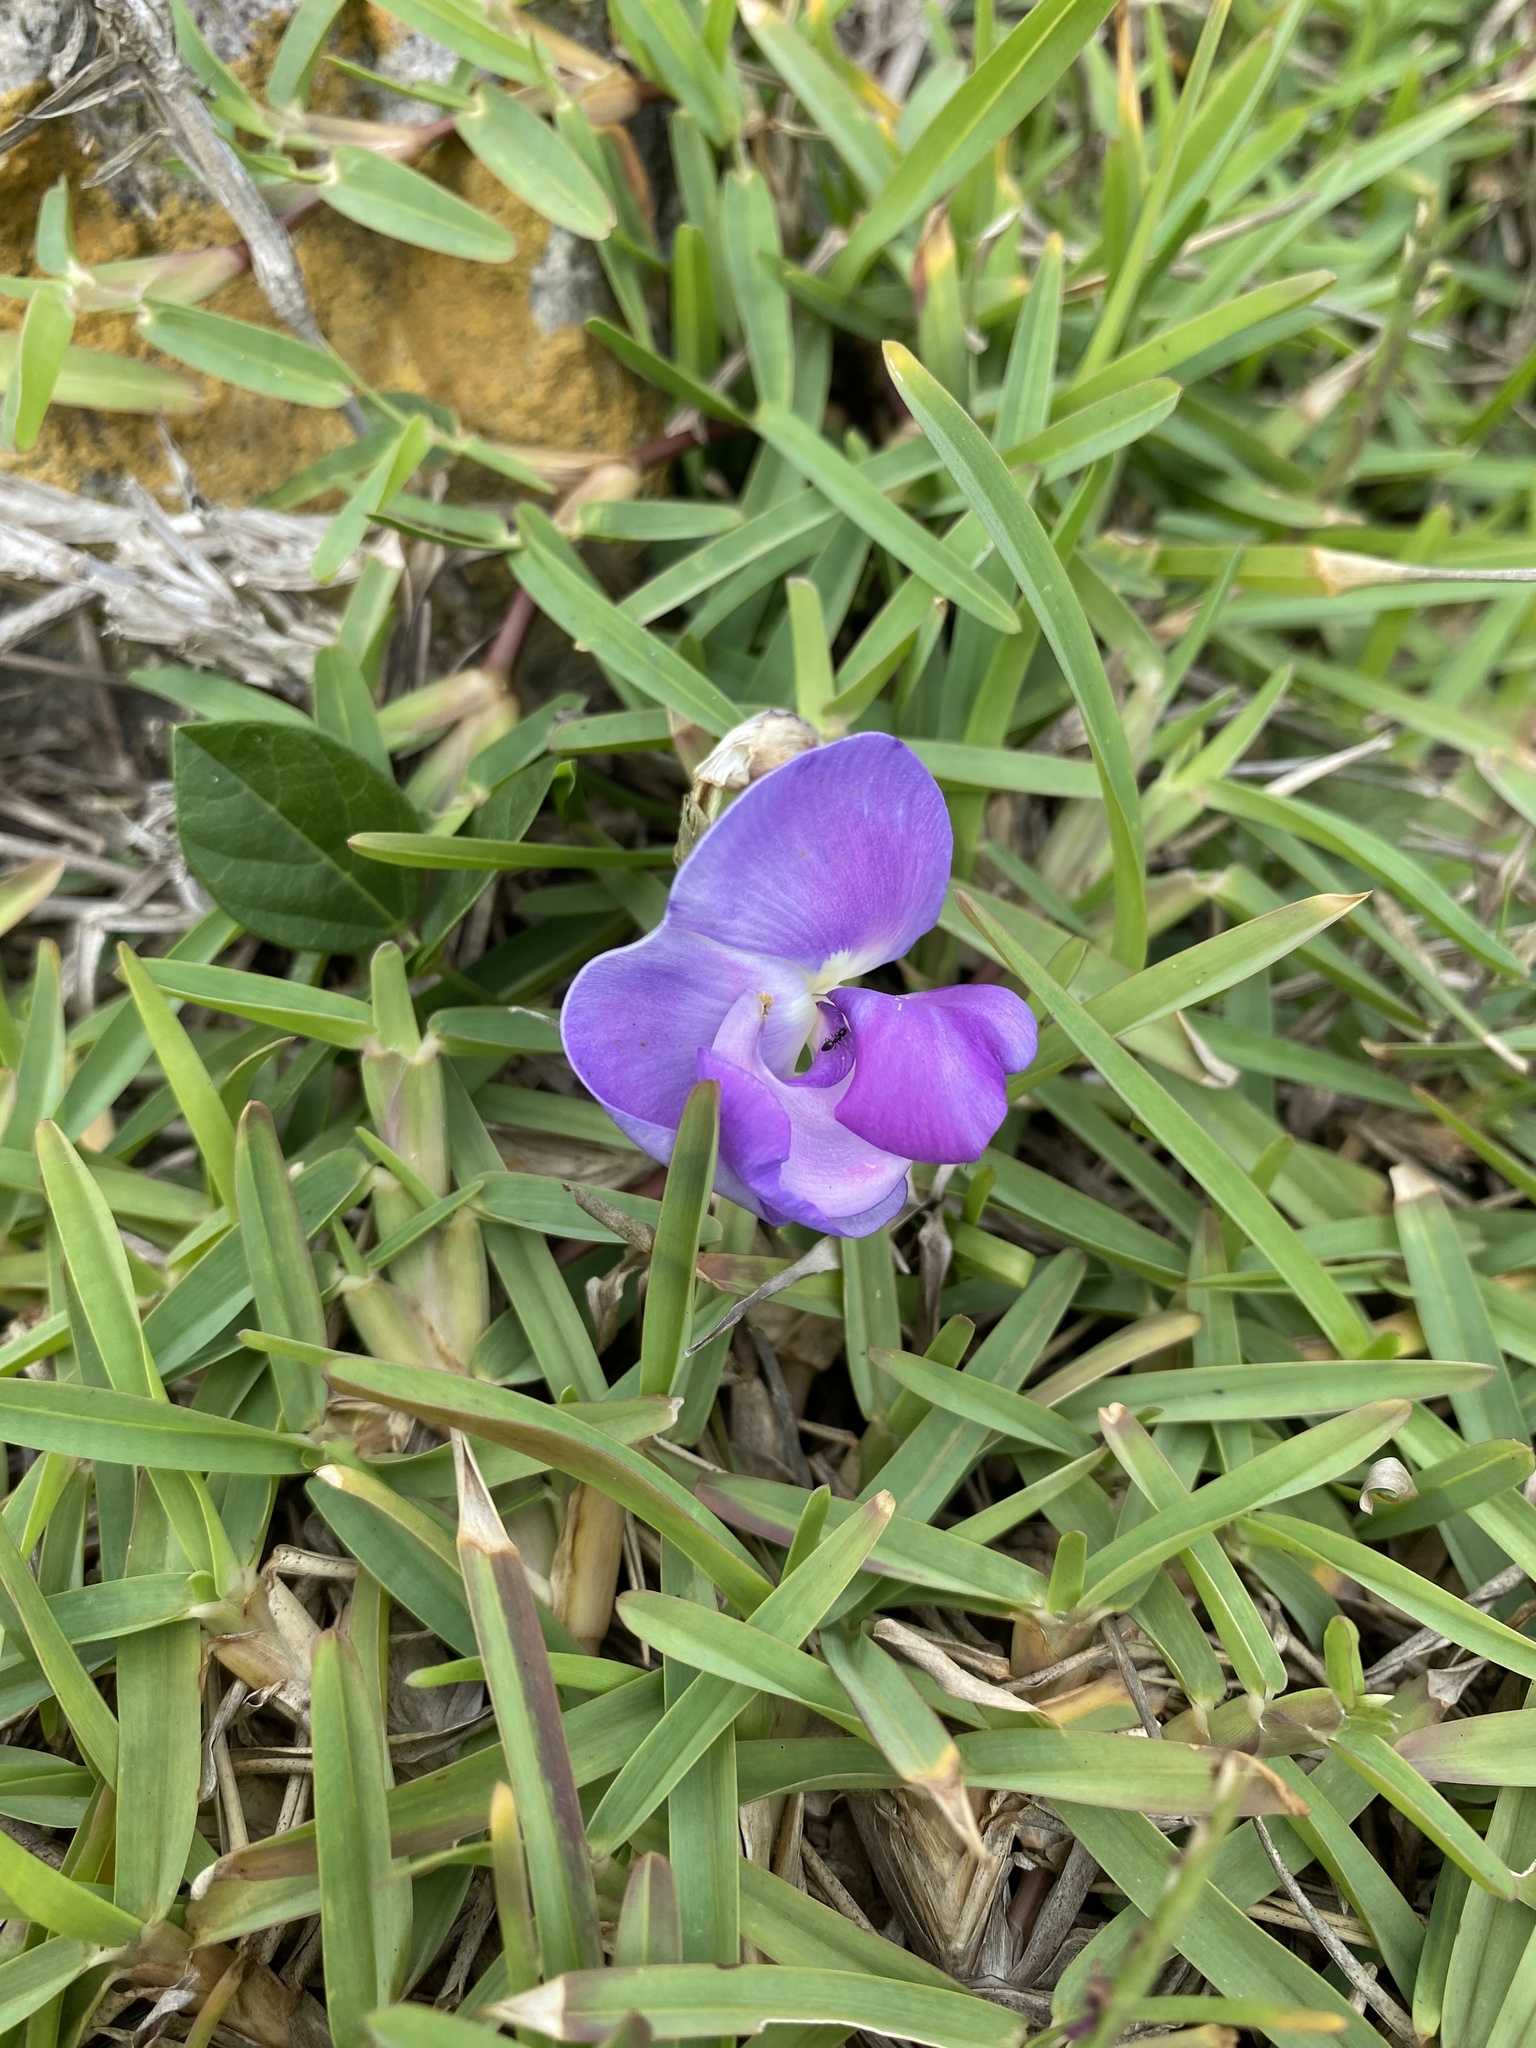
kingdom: Plantae
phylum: Tracheophyta
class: Magnoliopsida
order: Fabales
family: Fabaceae
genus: Vigna
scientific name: Vigna vexillata
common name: Zombi pea
